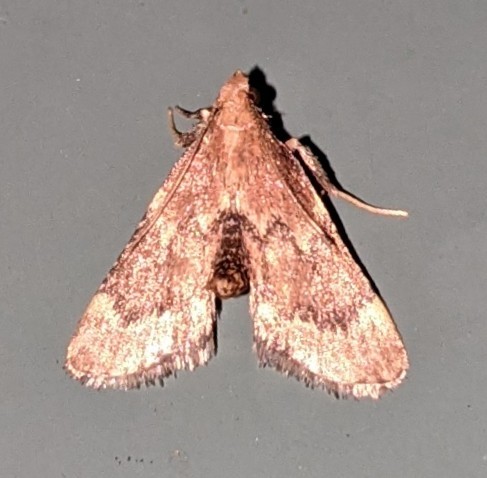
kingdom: Animalia
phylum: Arthropoda
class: Insecta
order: Lepidoptera
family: Pyralidae
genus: Hypsopygia
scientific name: Hypsopygia intermedialis
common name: Red-shawled moth
